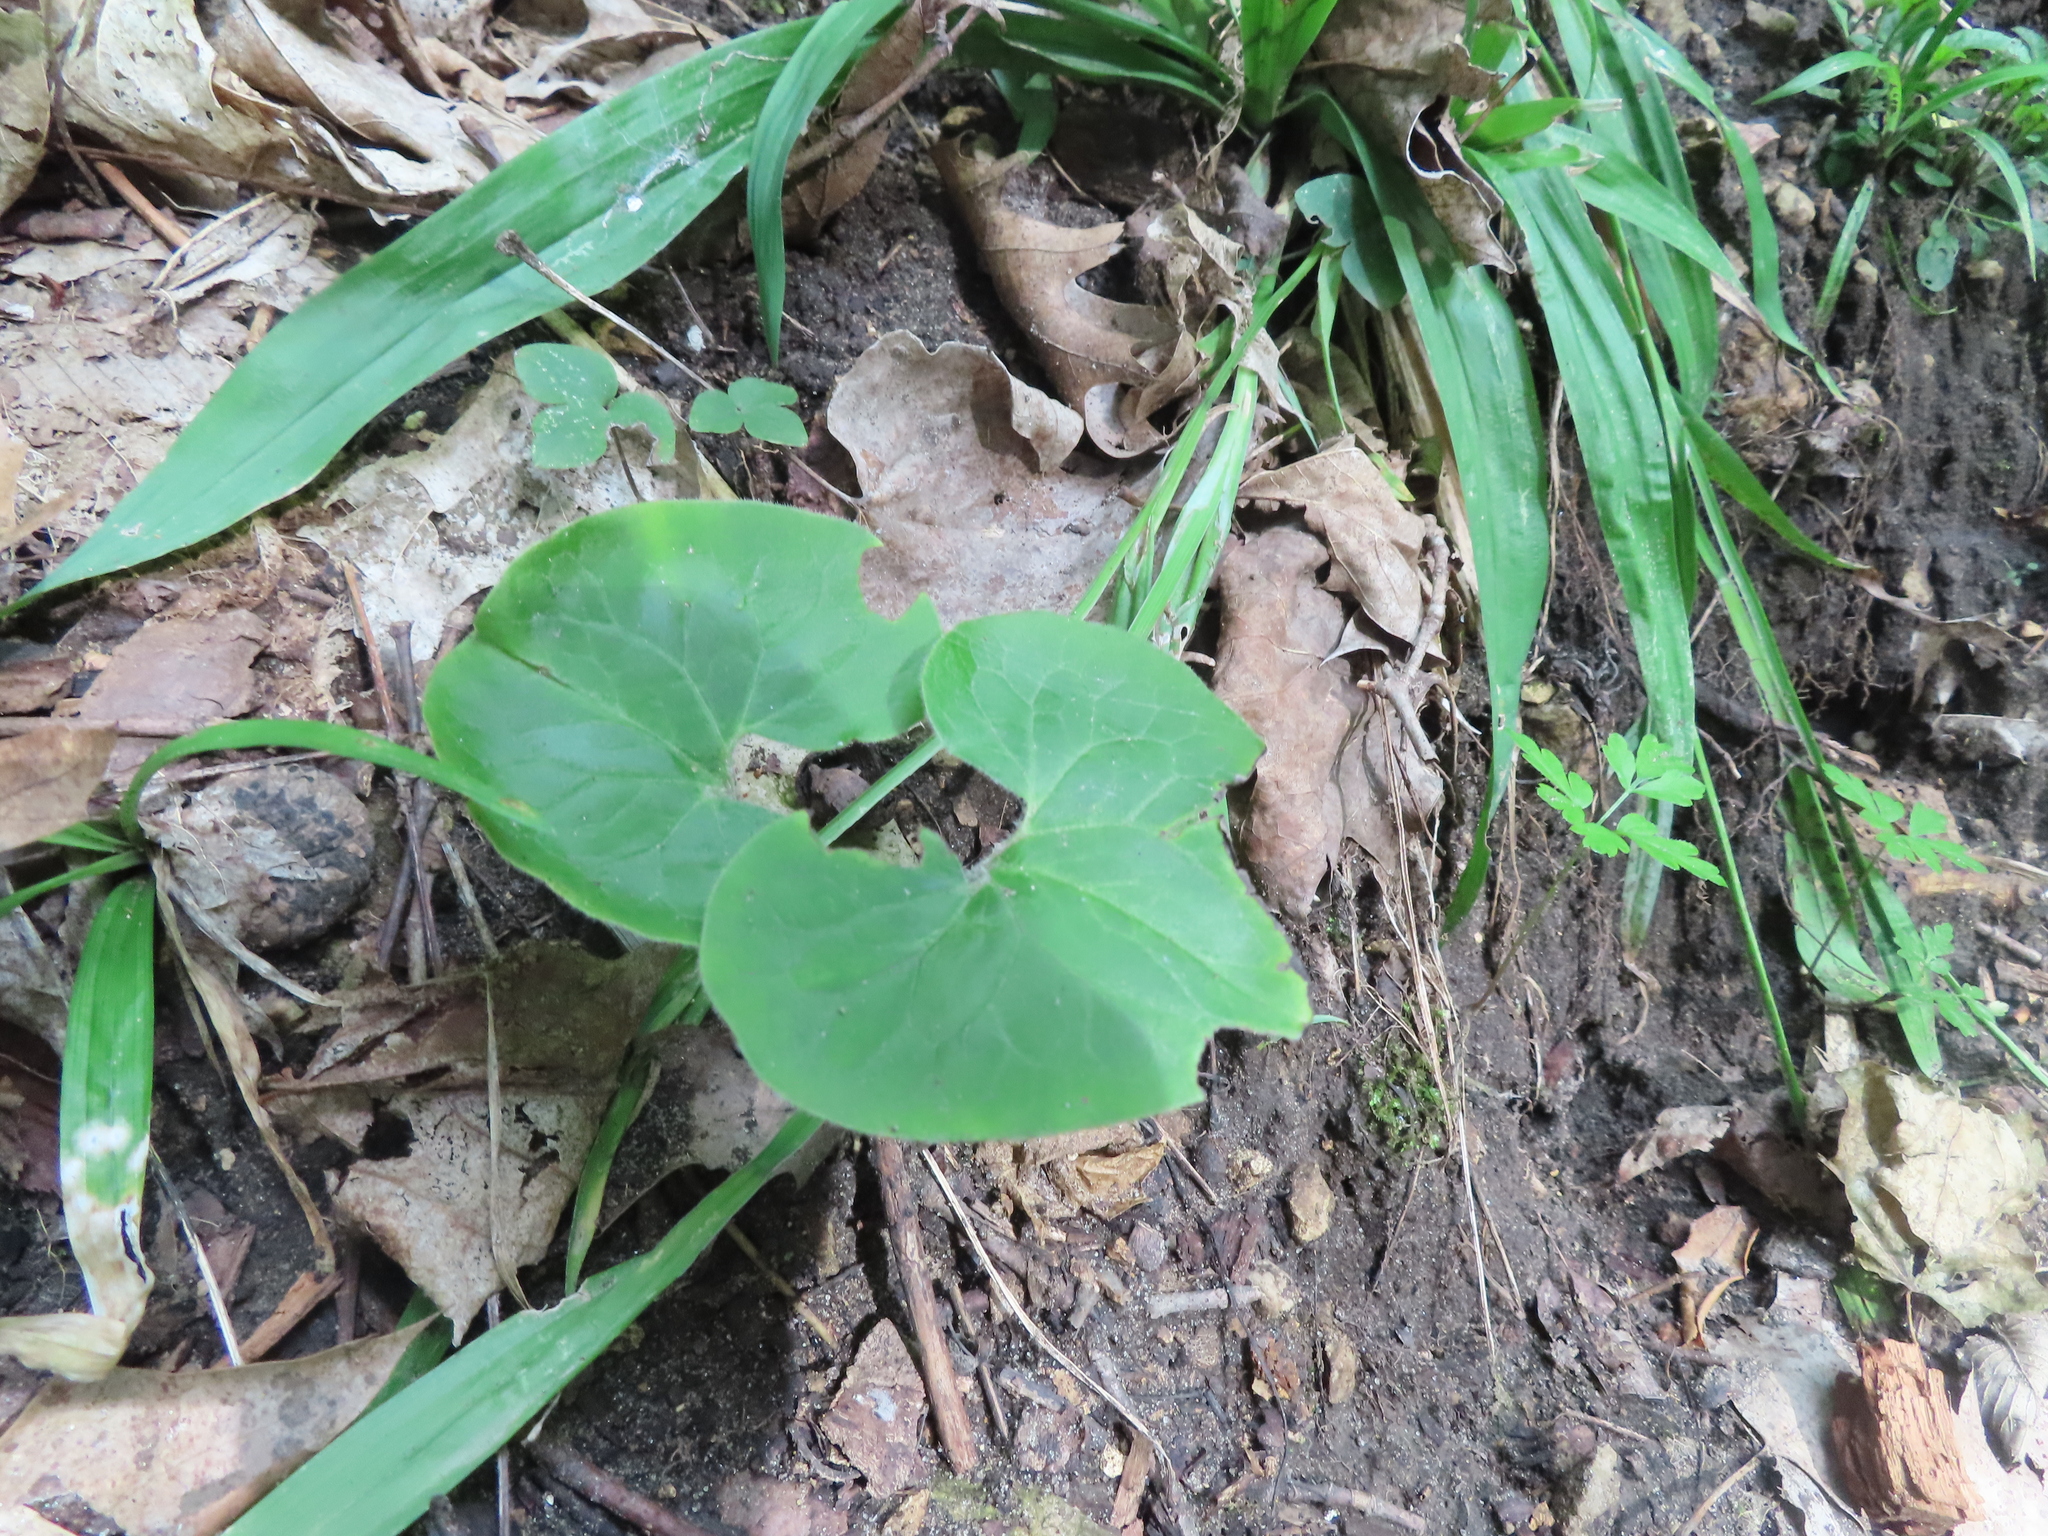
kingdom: Plantae
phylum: Tracheophyta
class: Magnoliopsida
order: Piperales
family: Aristolochiaceae
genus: Asarum
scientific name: Asarum canadense
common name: Wild ginger
